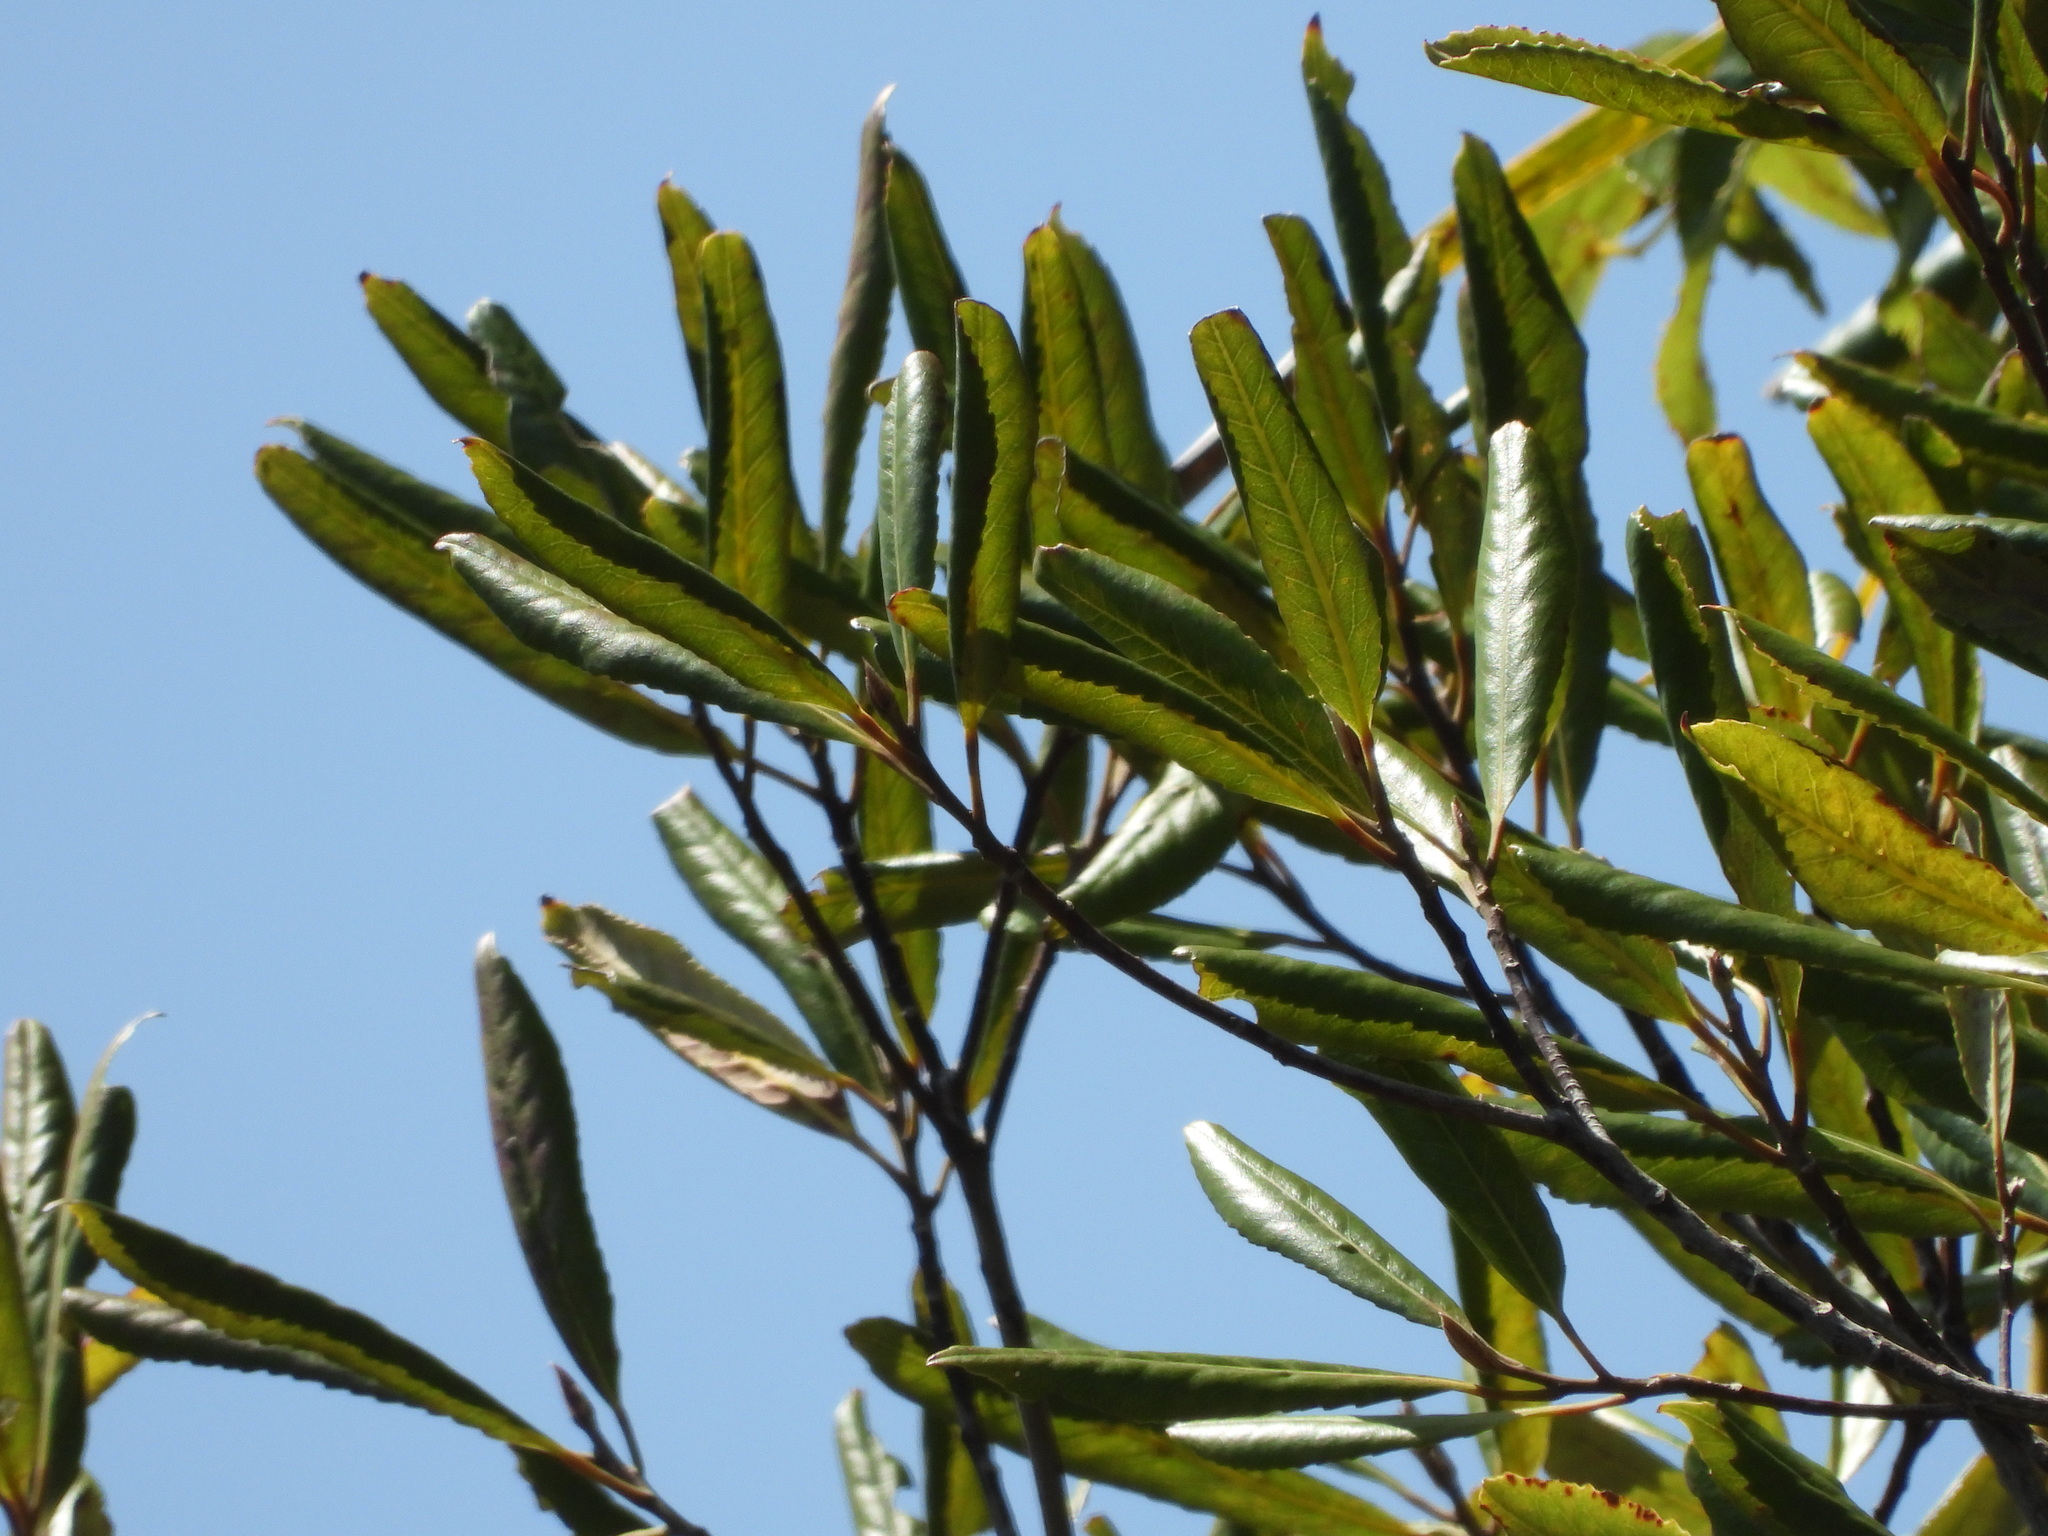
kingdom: Plantae
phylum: Tracheophyta
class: Magnoliopsida
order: Oxalidales
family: Elaeocarpaceae
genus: Elaeocarpus
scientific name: Elaeocarpus dentatus
